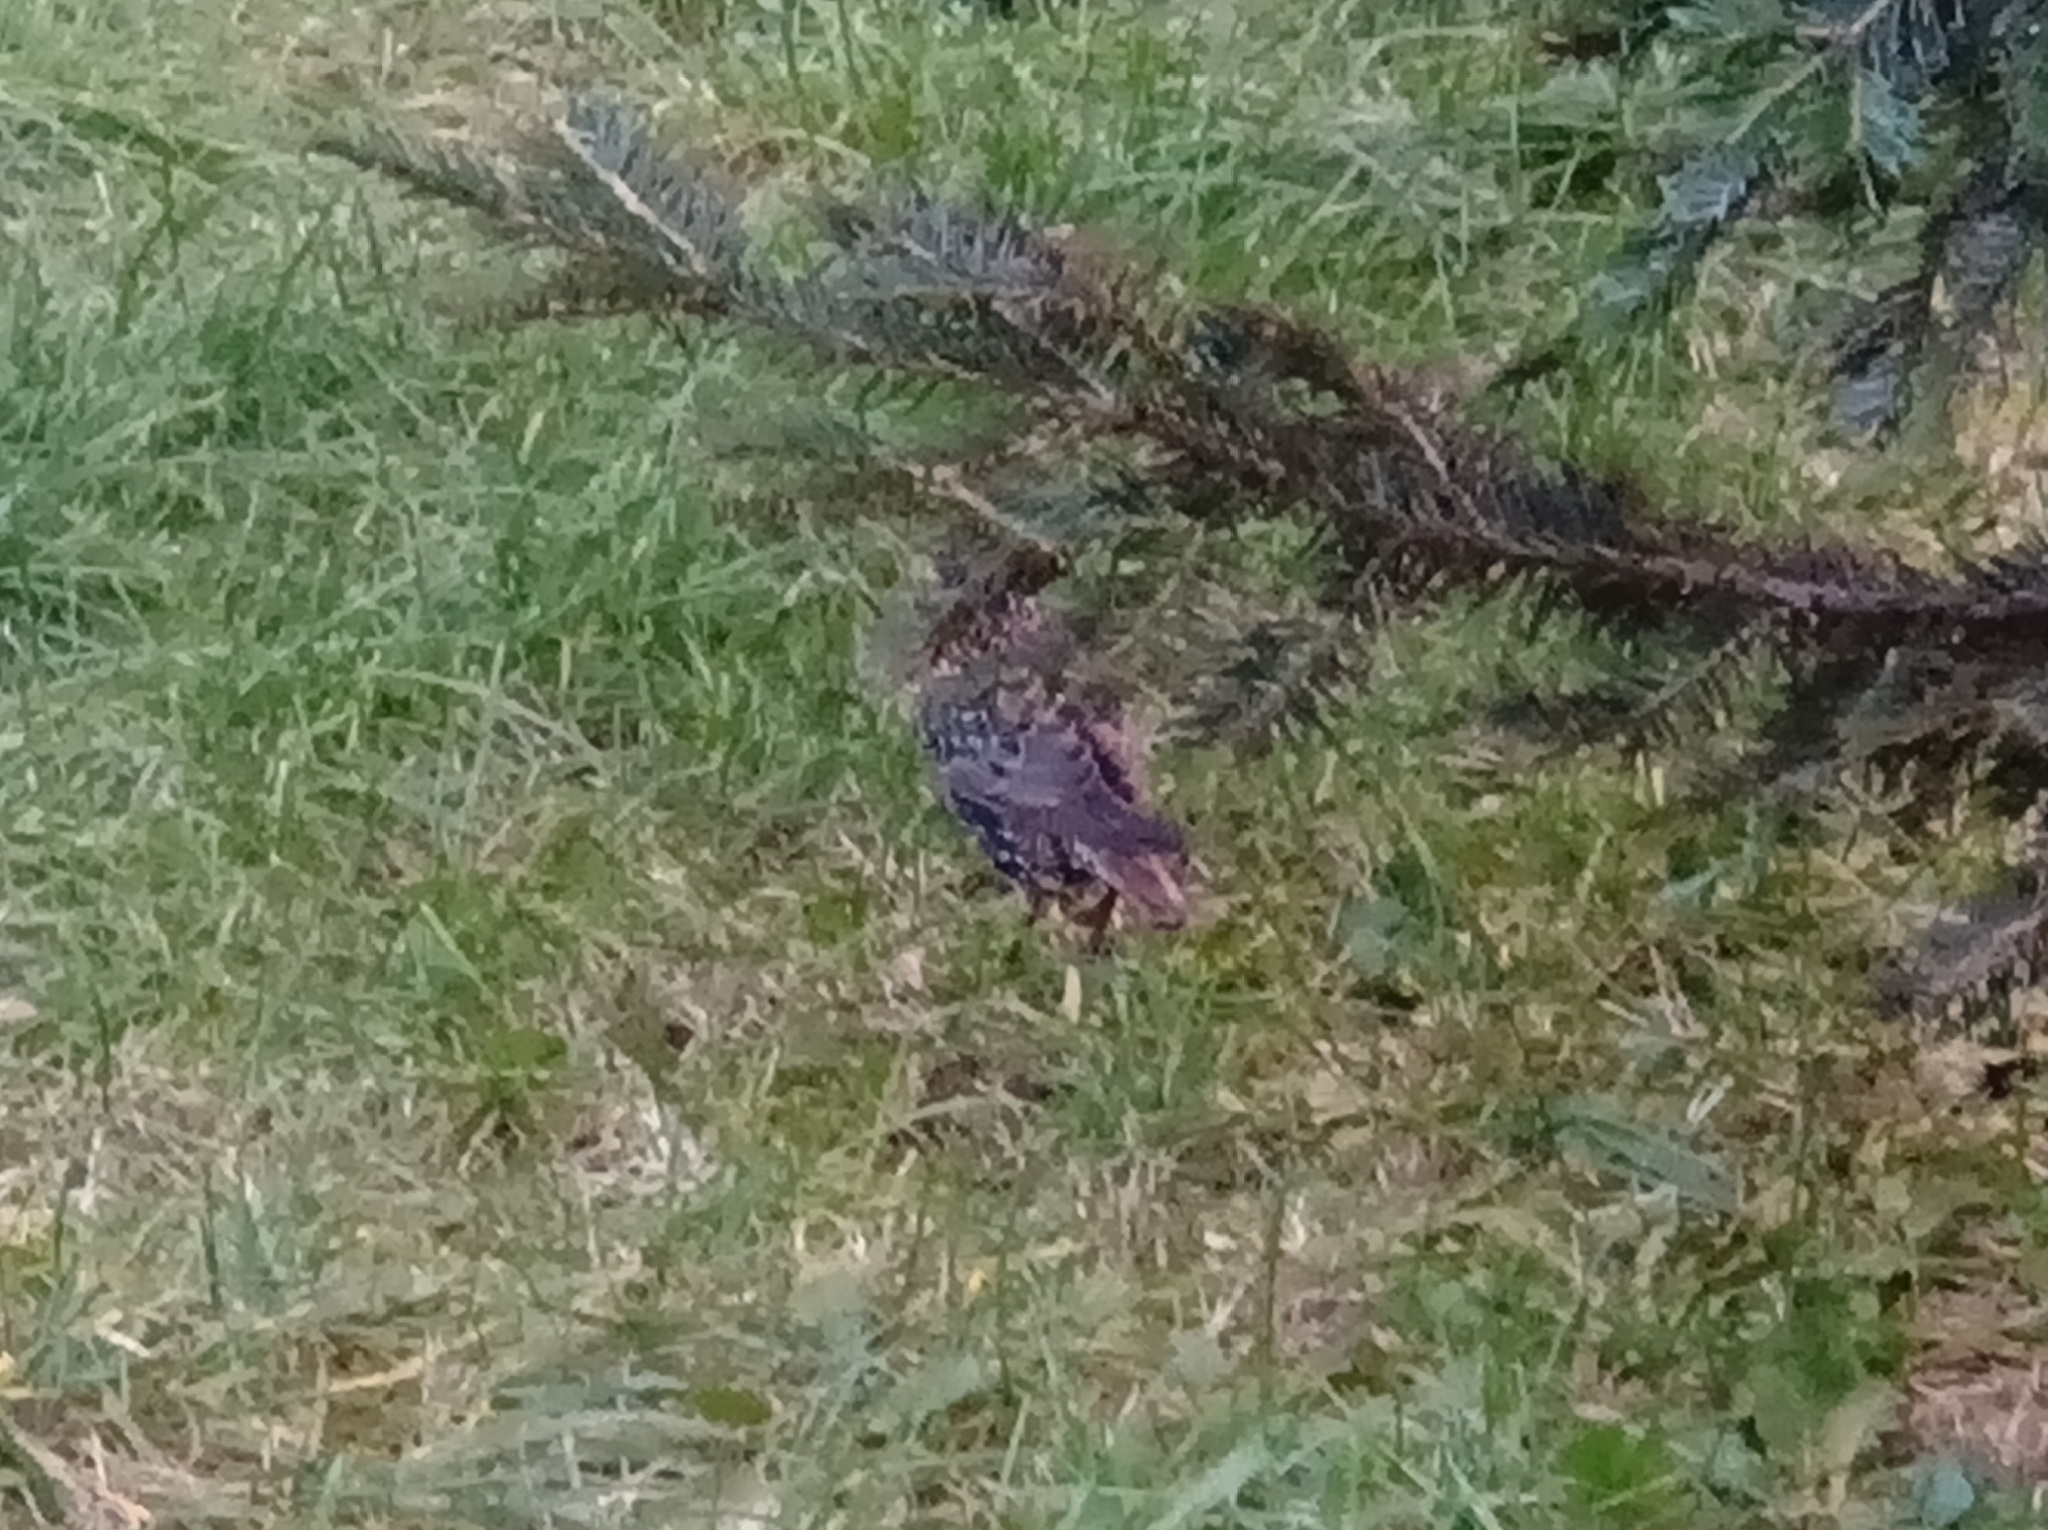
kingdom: Animalia
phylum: Chordata
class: Aves
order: Passeriformes
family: Sturnidae
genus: Sturnus
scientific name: Sturnus vulgaris
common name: Common starling
